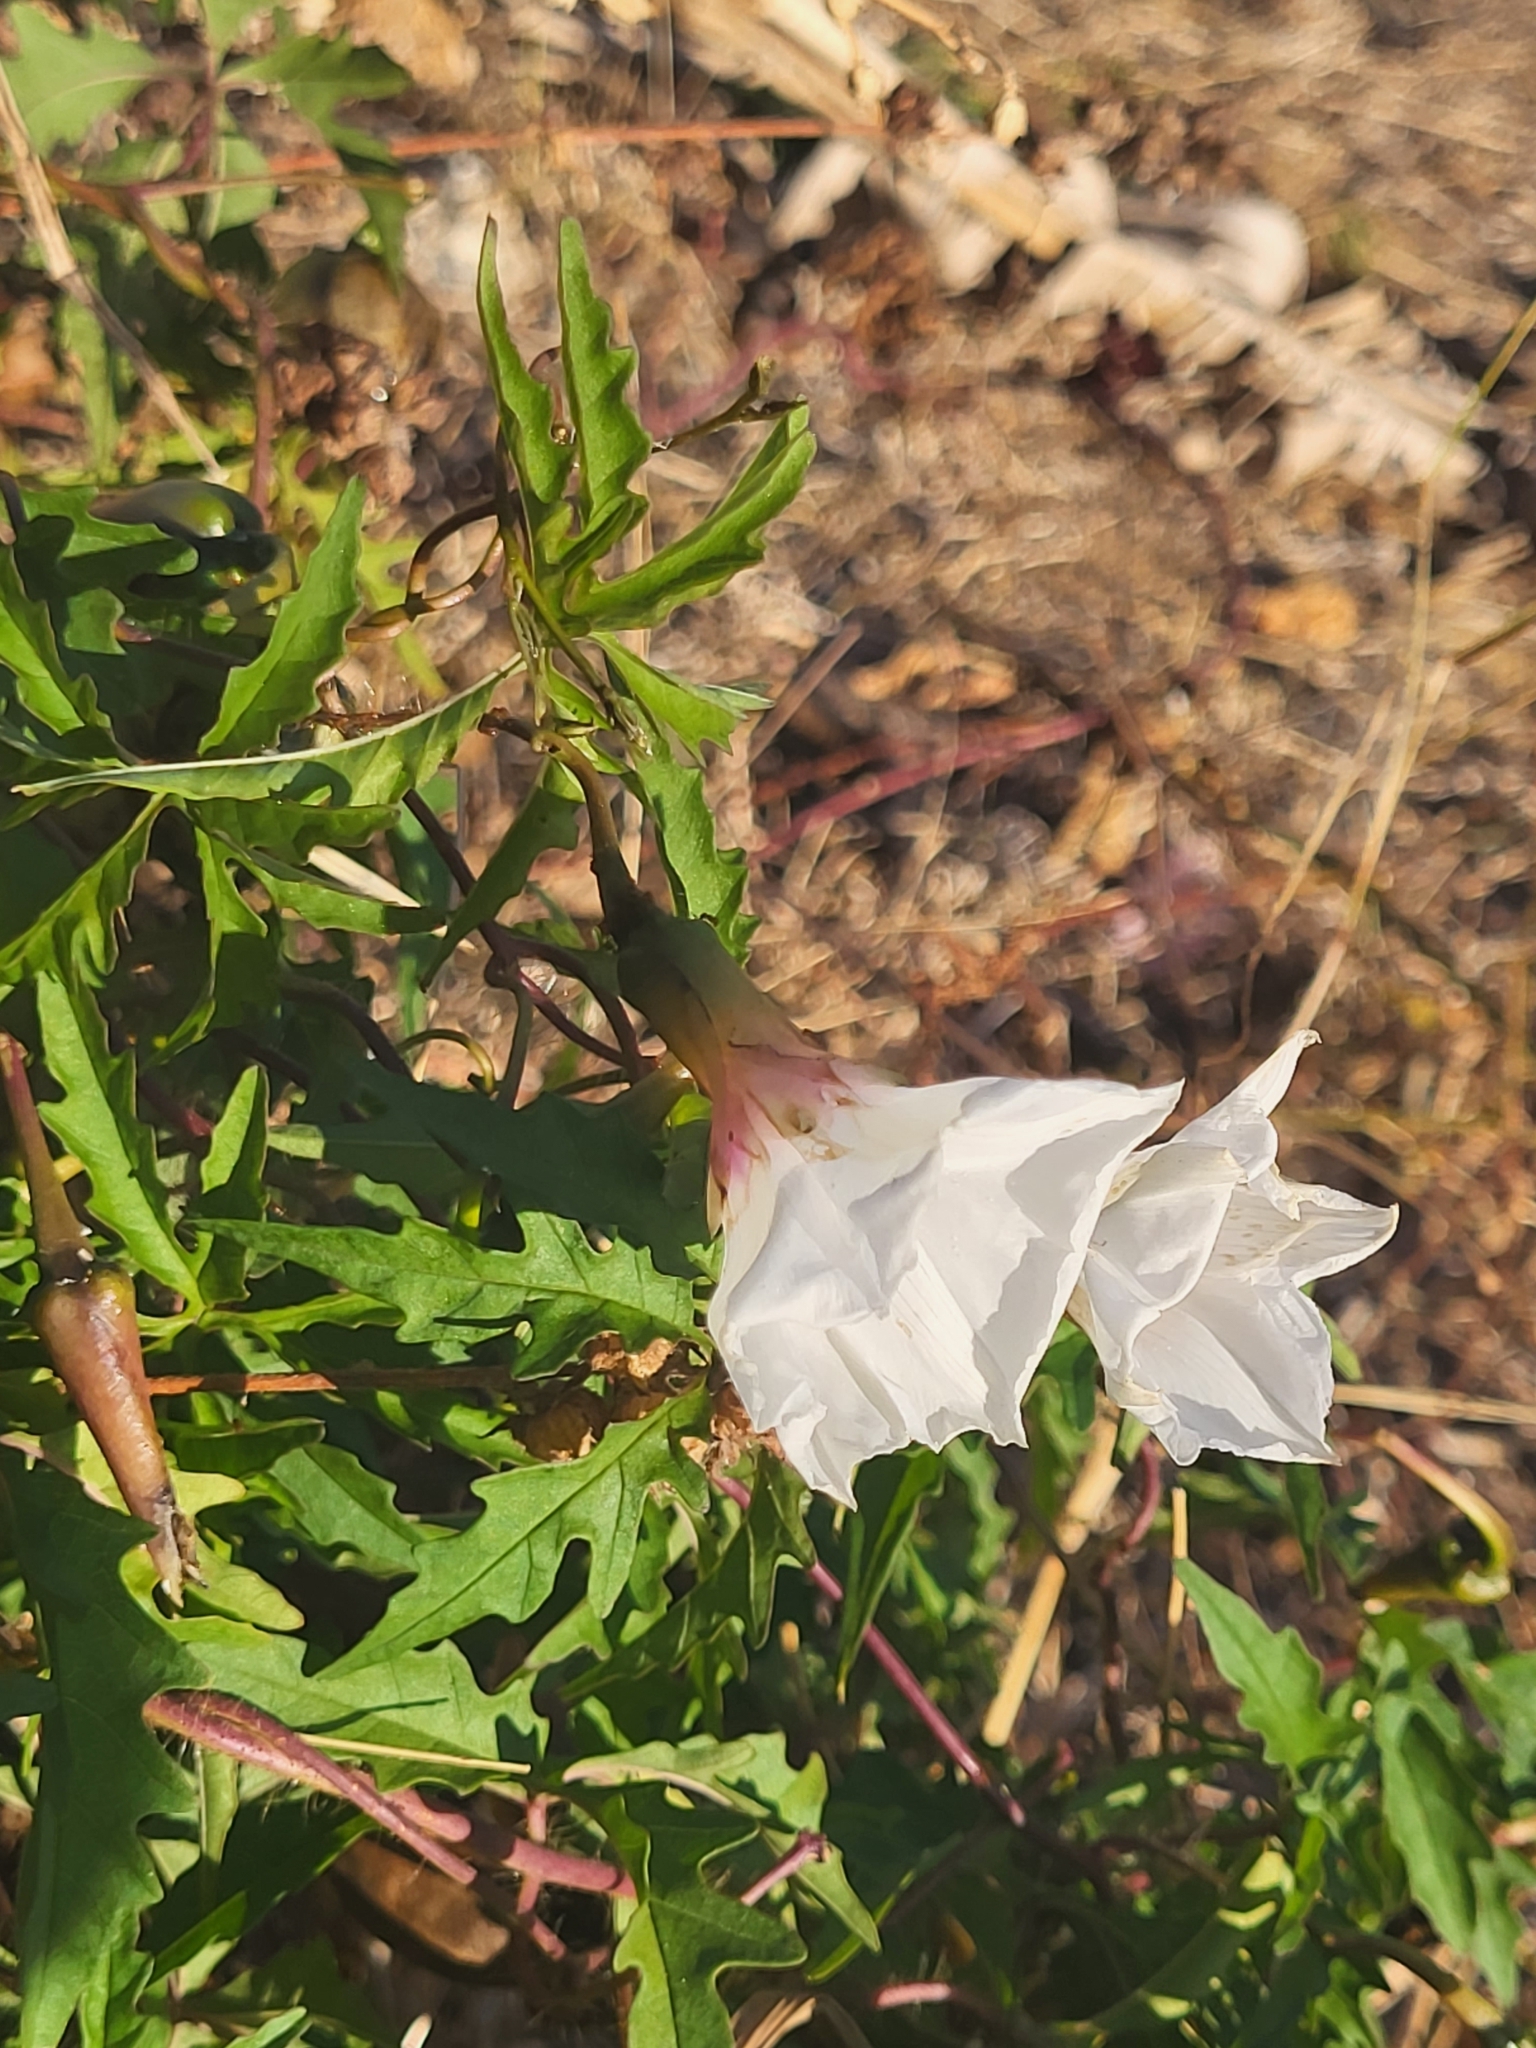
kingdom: Plantae
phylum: Tracheophyta
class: Magnoliopsida
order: Solanales
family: Convolvulaceae
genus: Distimake
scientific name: Distimake dissectus
